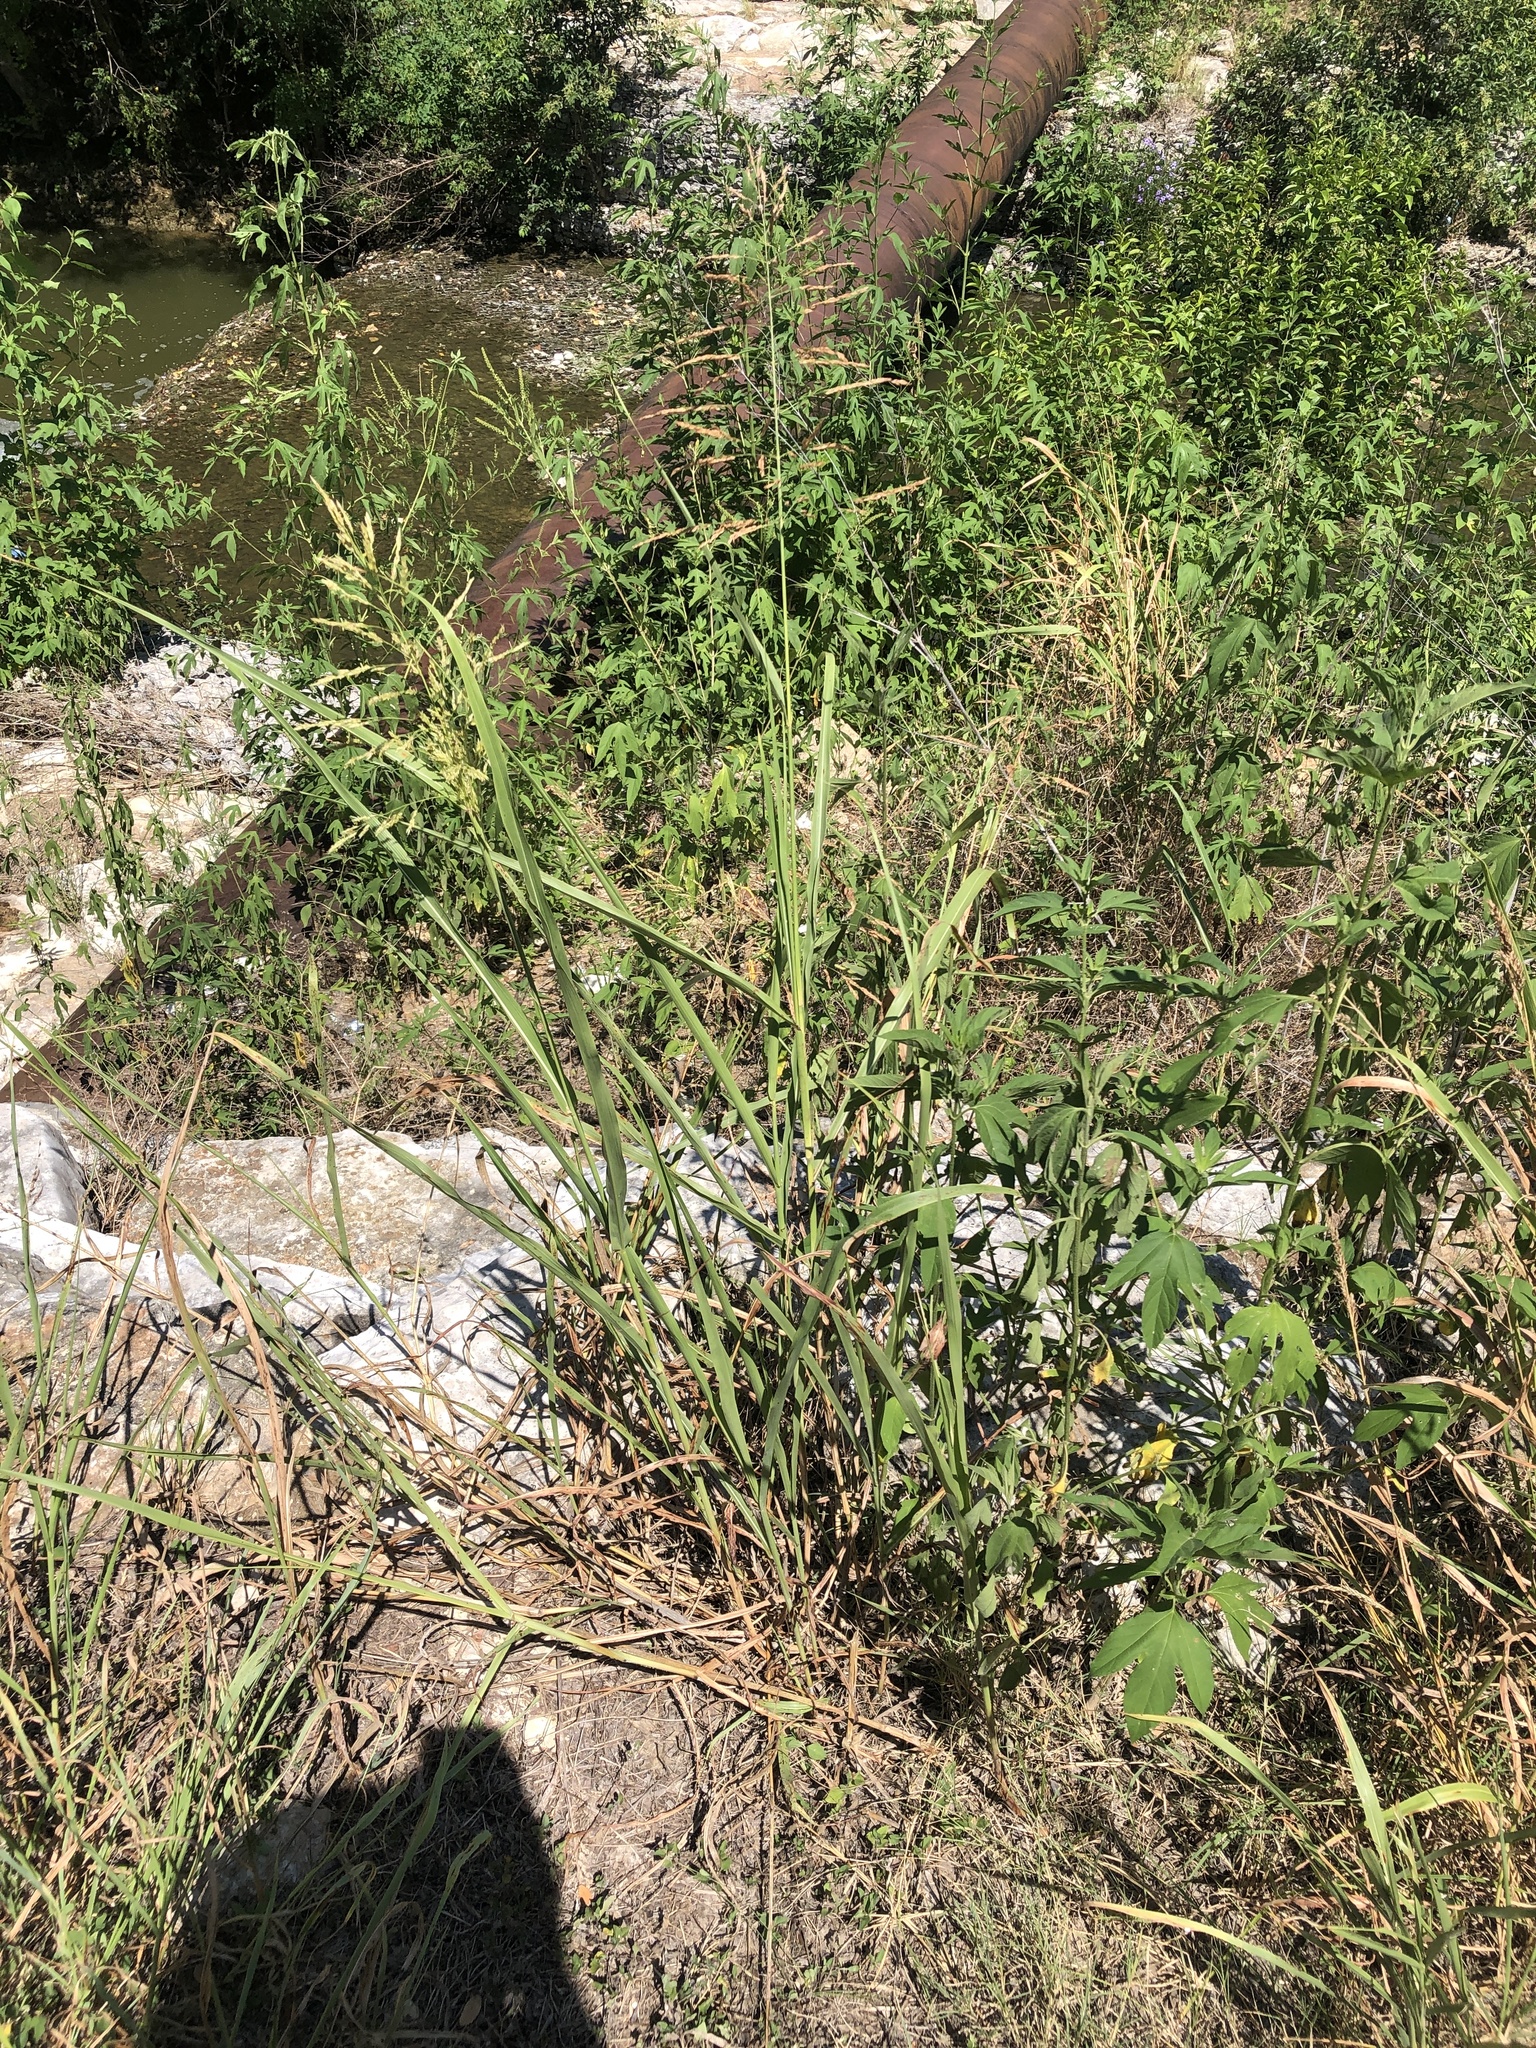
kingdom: Plantae
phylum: Tracheophyta
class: Liliopsida
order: Poales
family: Poaceae
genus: Sorghum
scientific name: Sorghum halepense
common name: Johnson-grass
